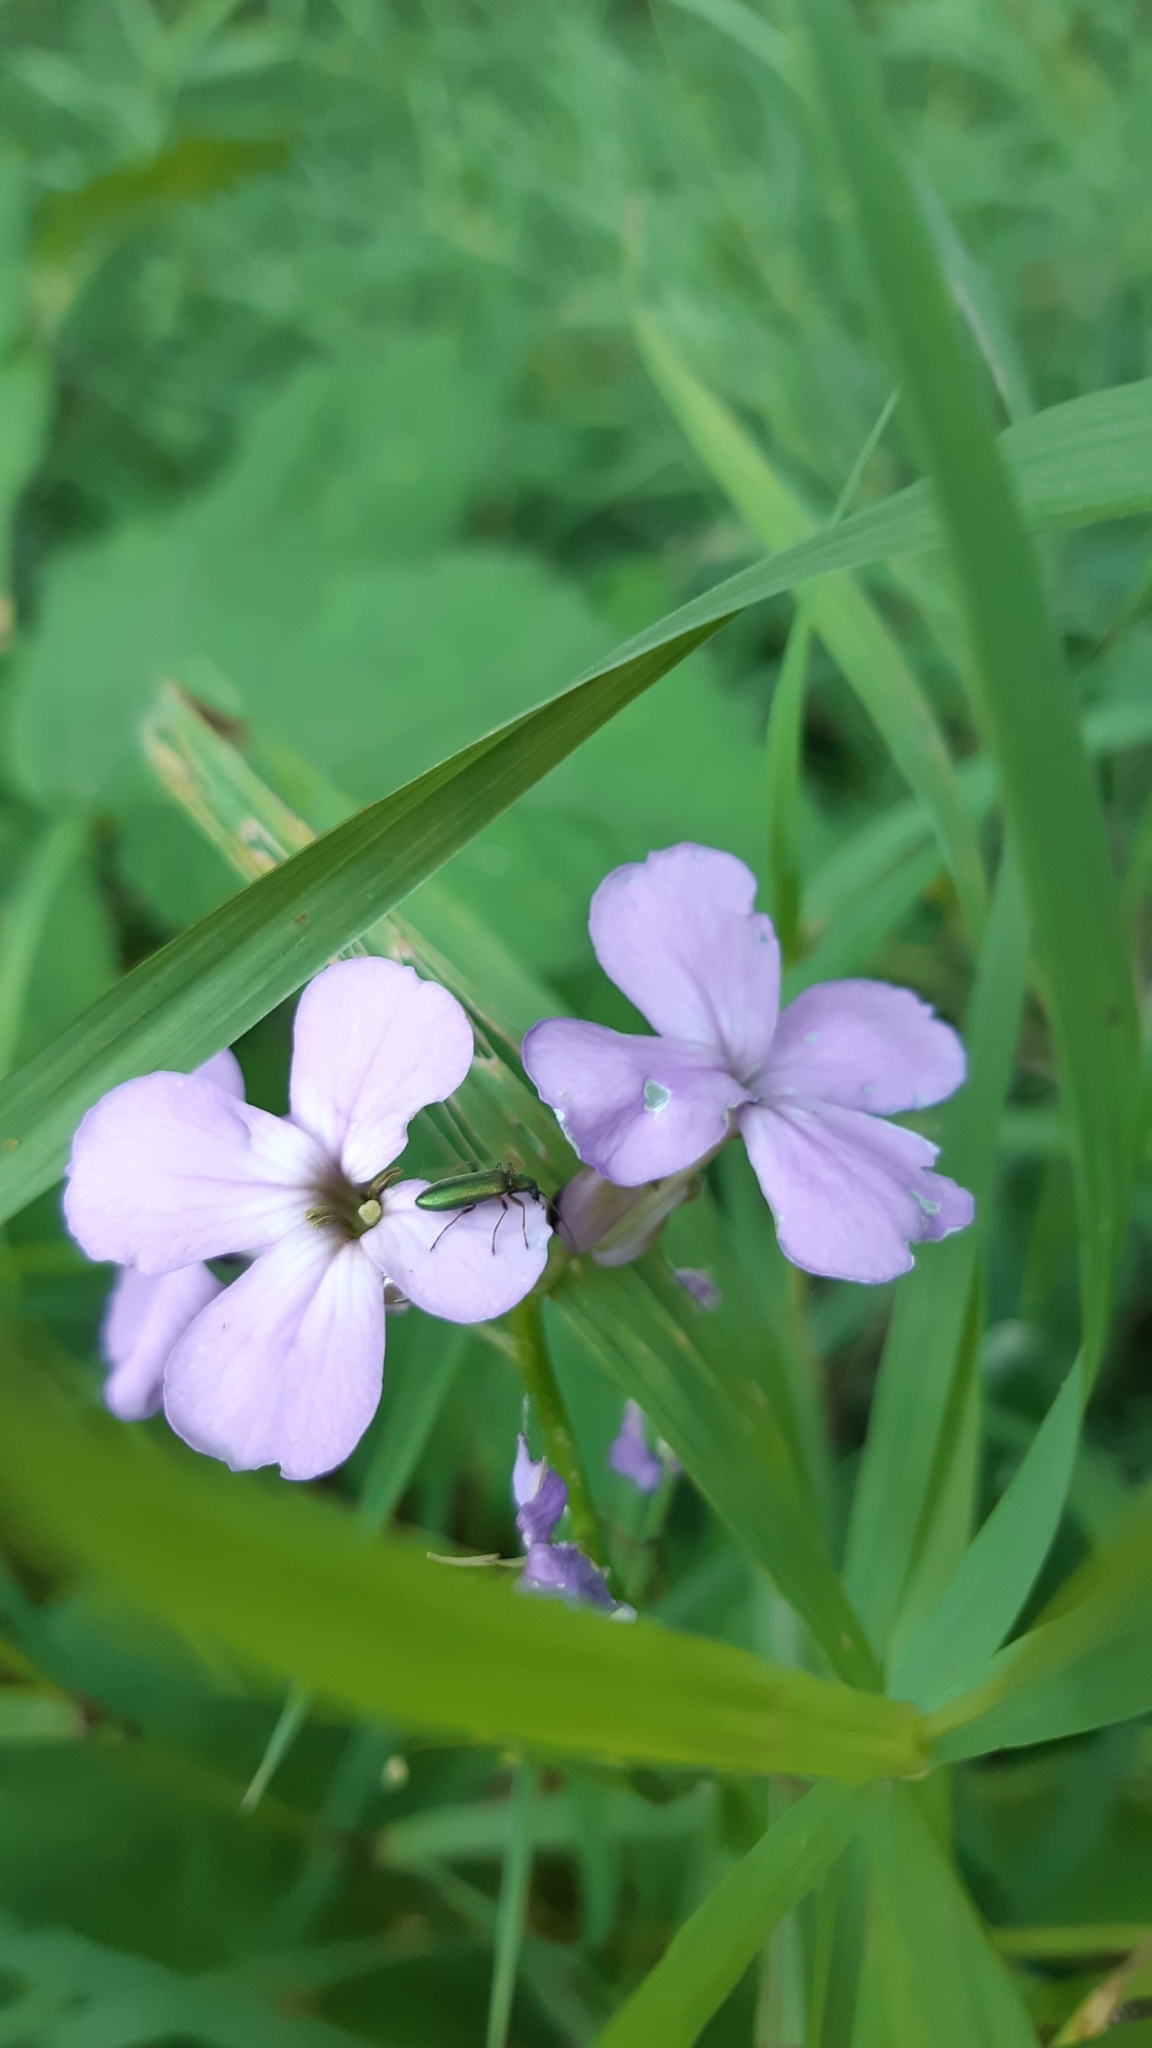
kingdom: Animalia
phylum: Arthropoda
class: Insecta
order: Coleoptera
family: Oedemeridae
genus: Chrysanthia
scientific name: Chrysanthia geniculata
